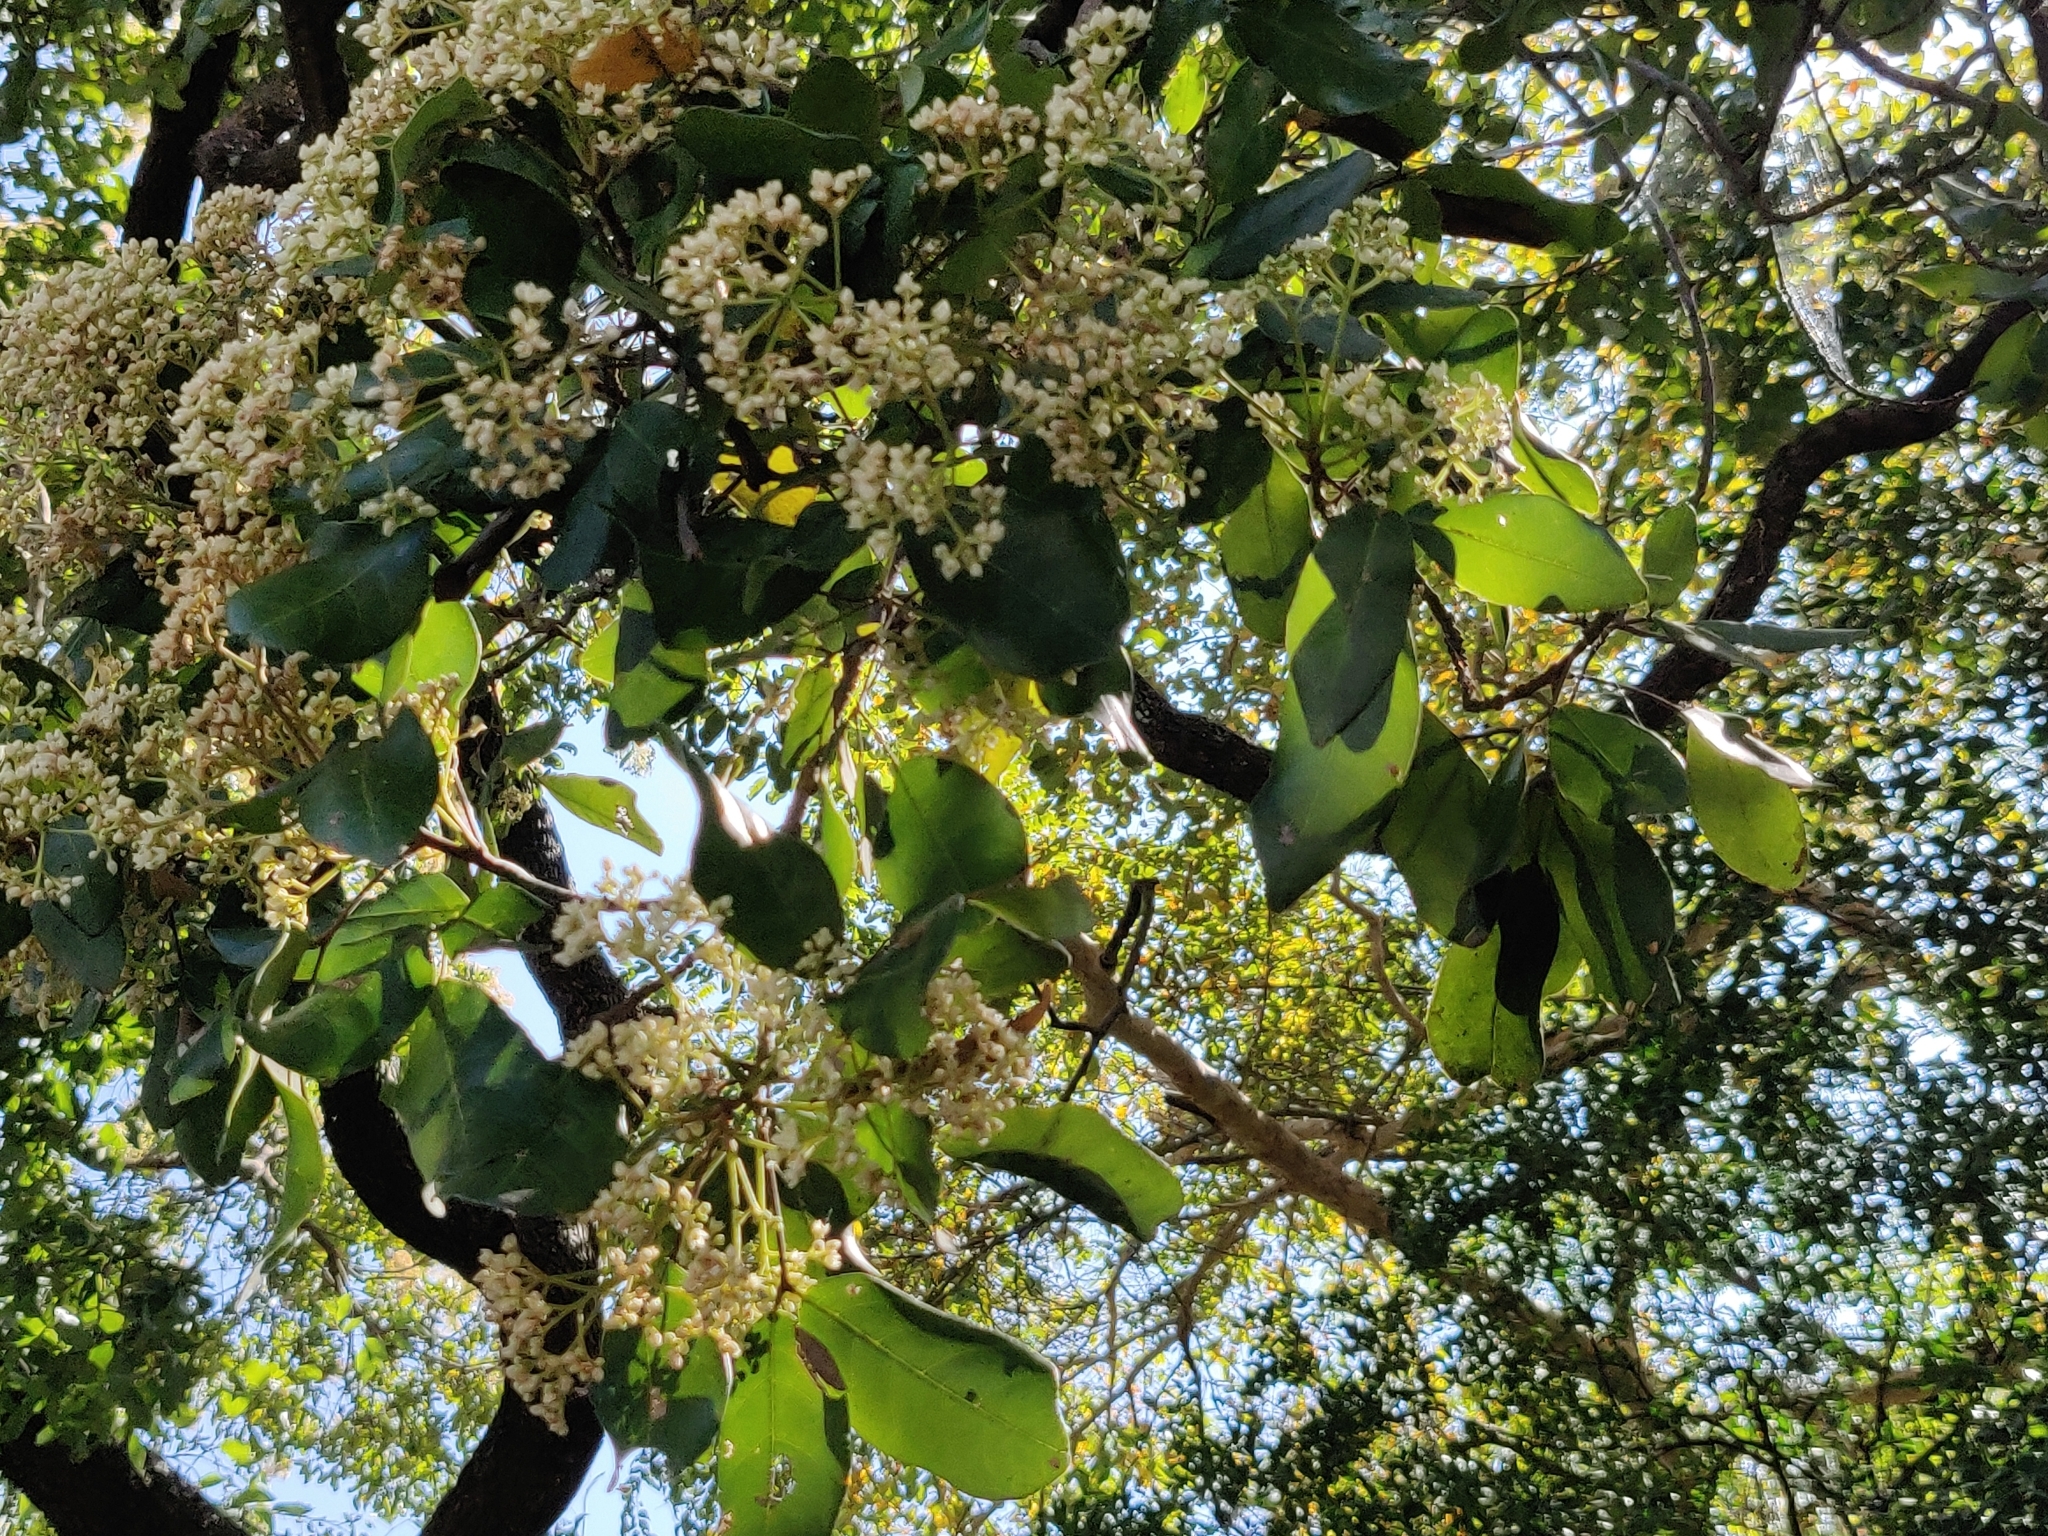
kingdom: Plantae
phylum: Tracheophyta
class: Magnoliopsida
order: Sapindales
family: Meliaceae
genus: Walsura
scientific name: Walsura trifoliolata
